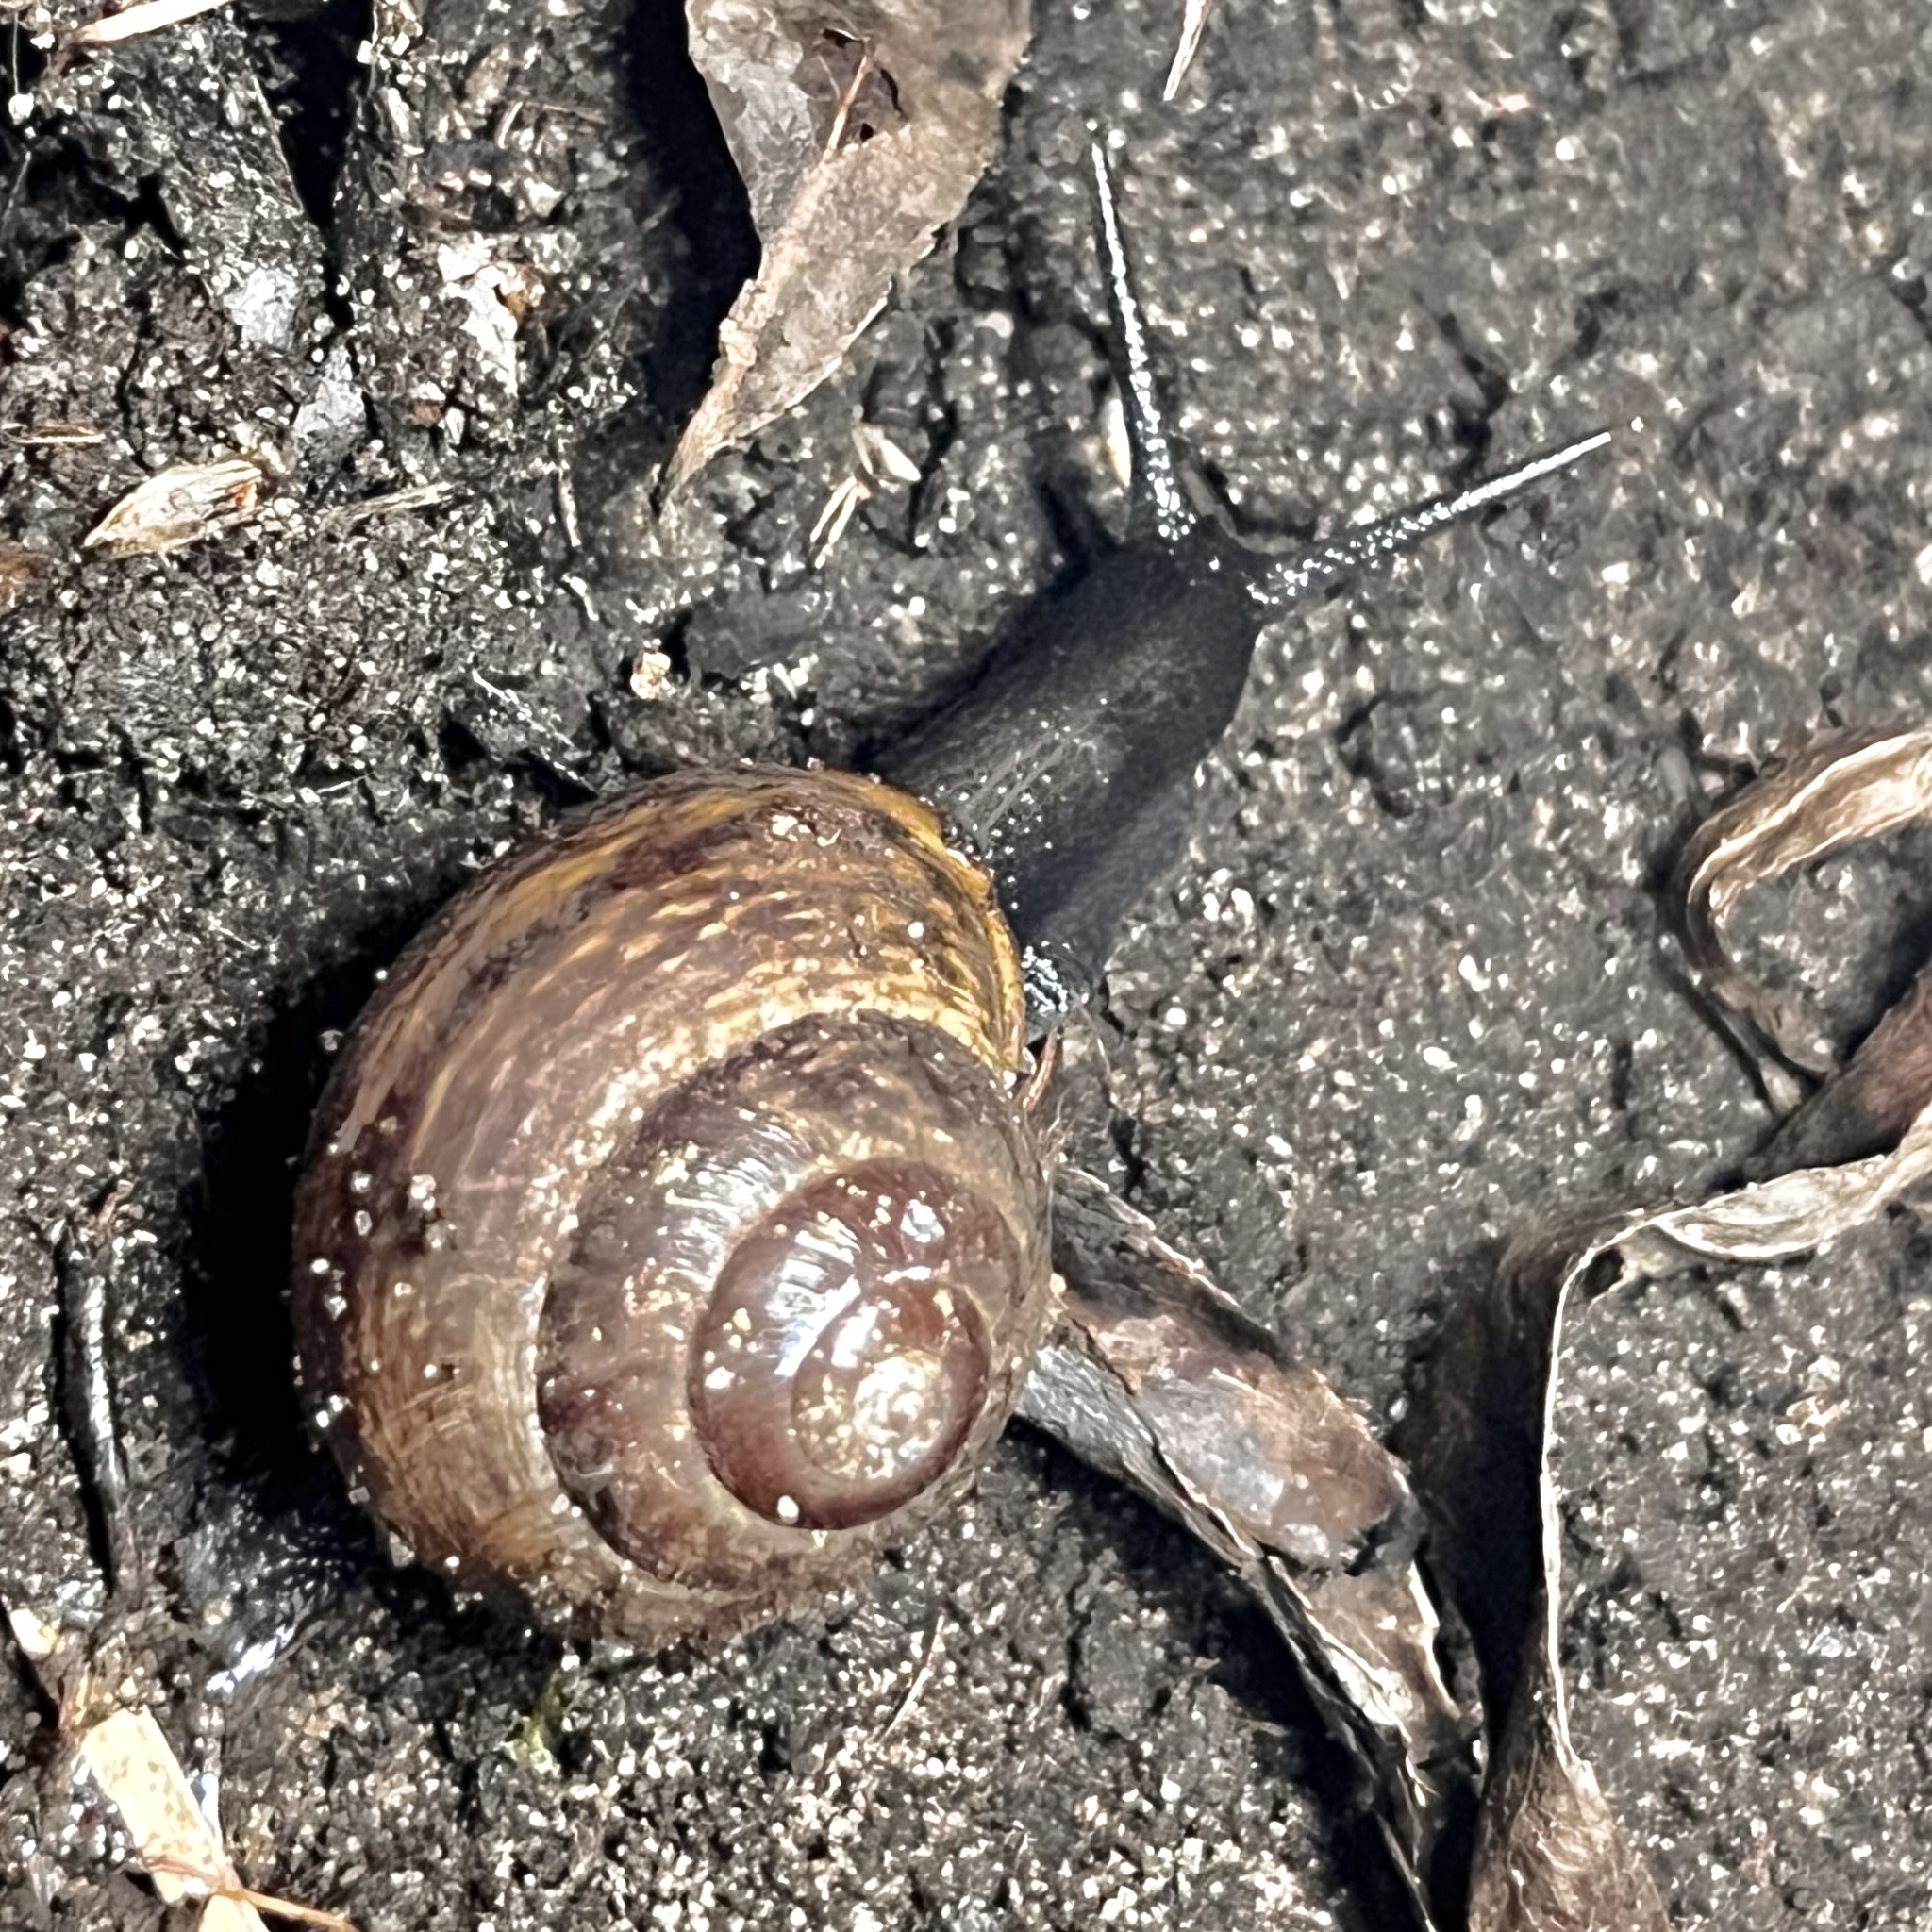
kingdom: Animalia
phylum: Mollusca
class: Gastropoda
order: Stylommatophora
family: Helicidae
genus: Arianta
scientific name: Arianta arbustorum
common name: Copse snail
